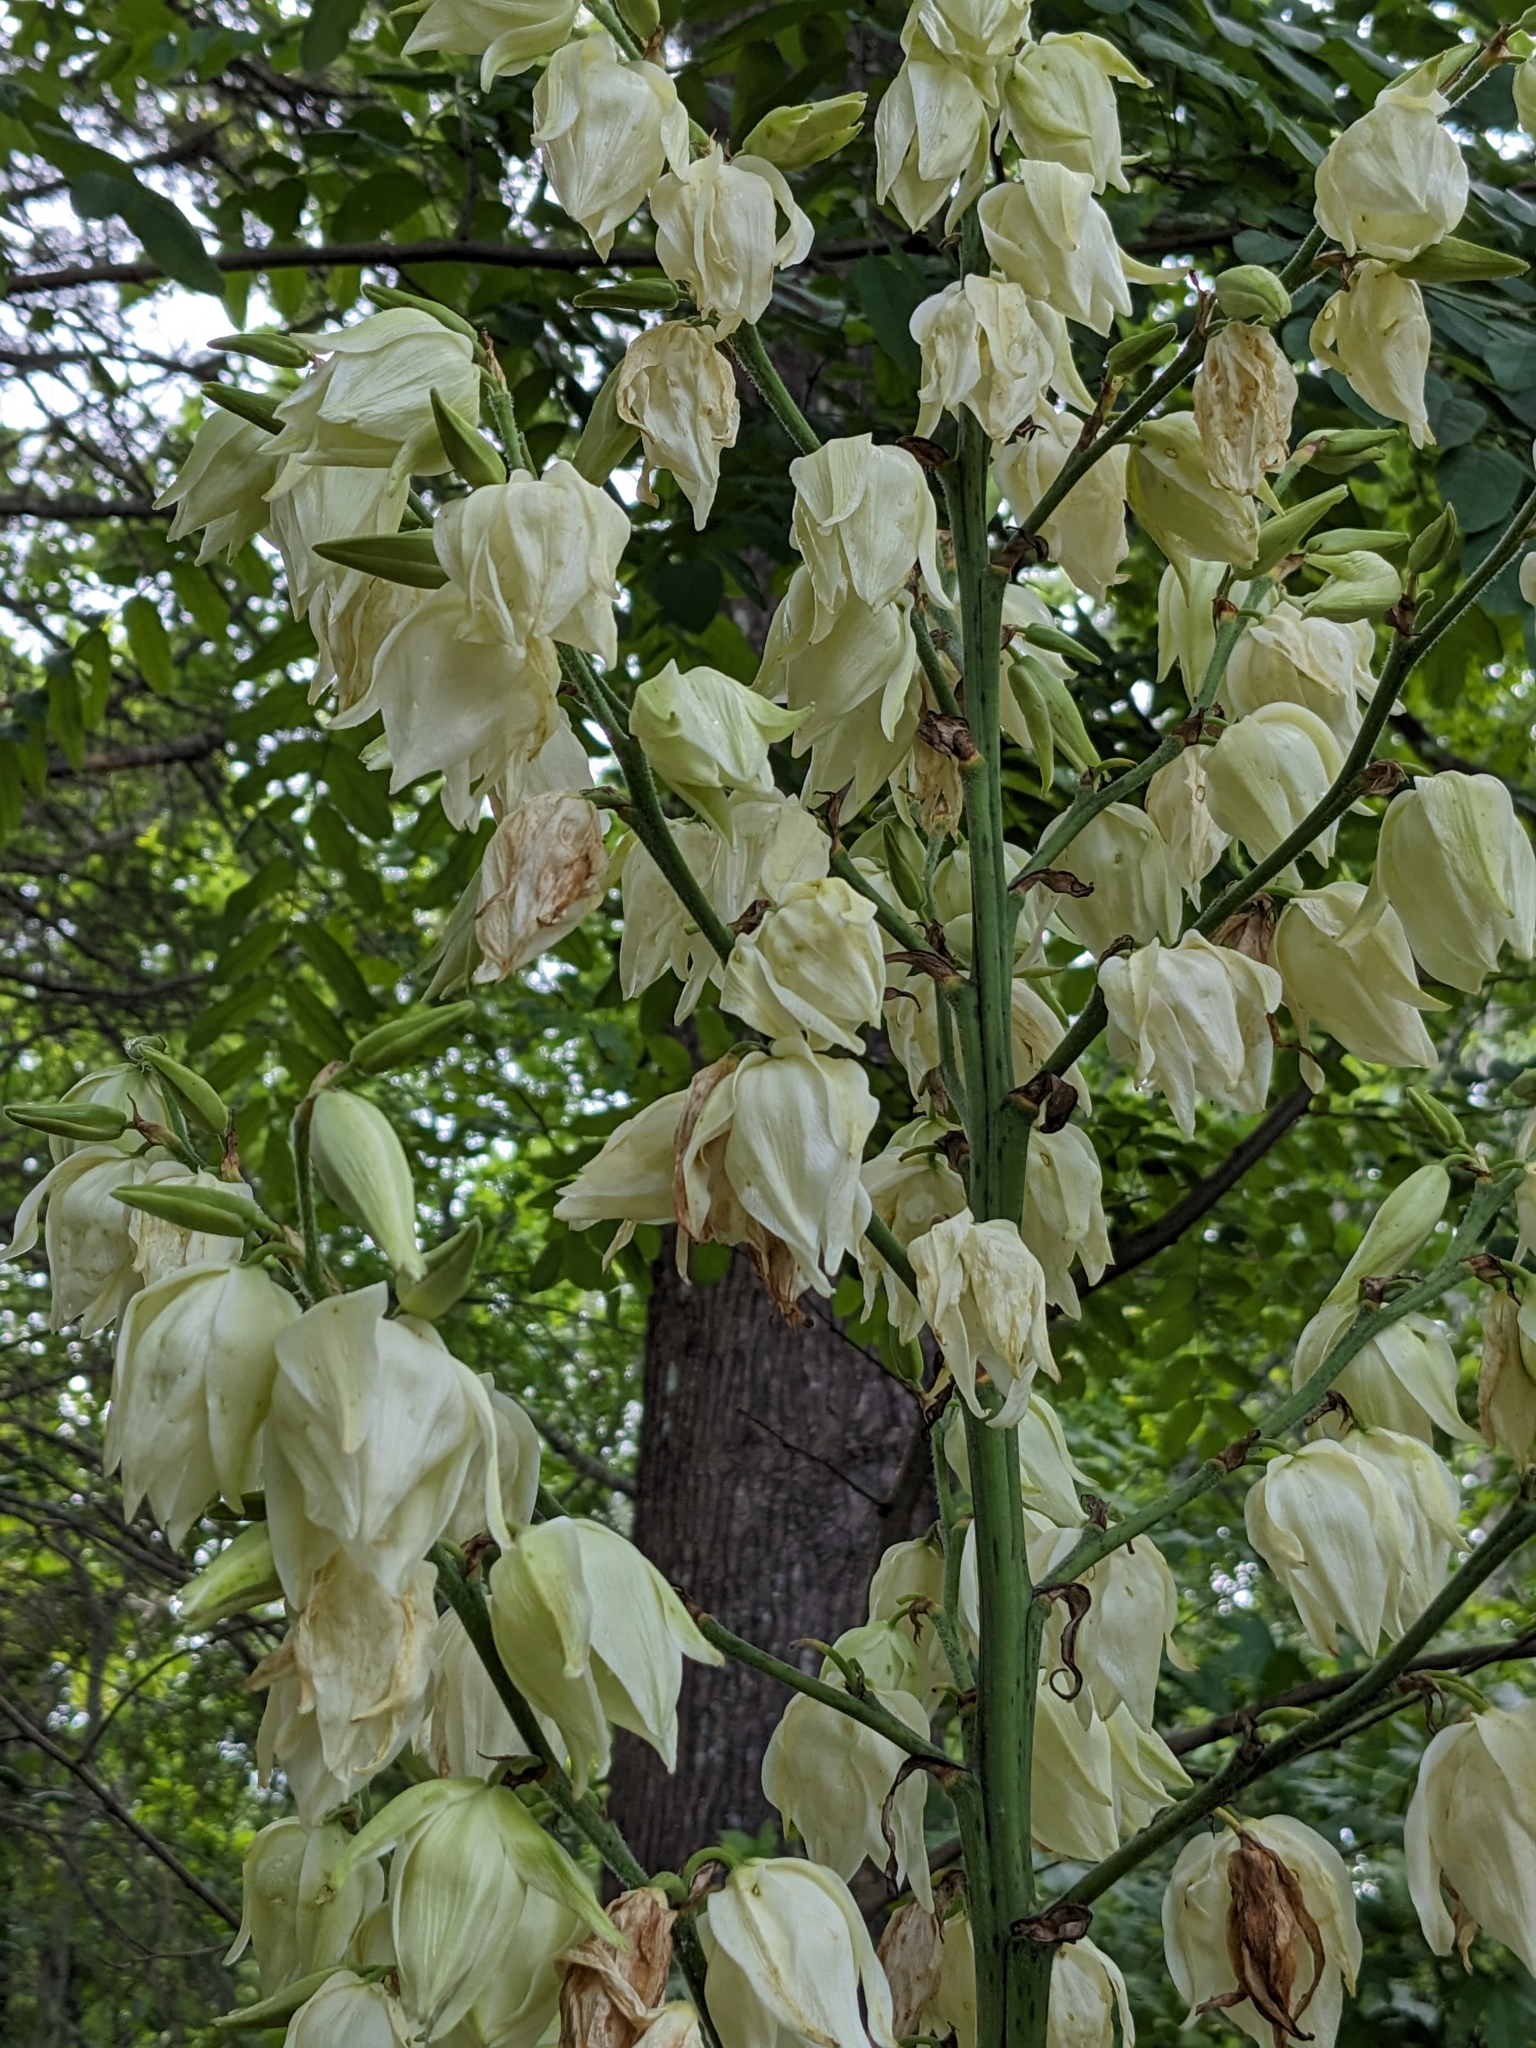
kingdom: Plantae
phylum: Tracheophyta
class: Liliopsida
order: Asparagales
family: Asparagaceae
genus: Yucca
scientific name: Yucca filamentosa
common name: Adam's-needle
